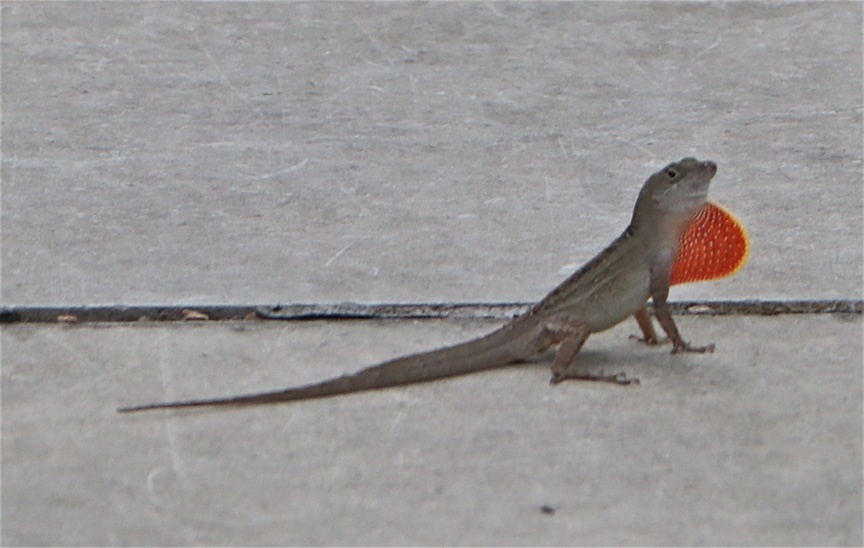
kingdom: Animalia
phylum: Chordata
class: Squamata
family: Dactyloidae
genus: Anolis
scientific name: Anolis sagrei
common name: Brown anole
